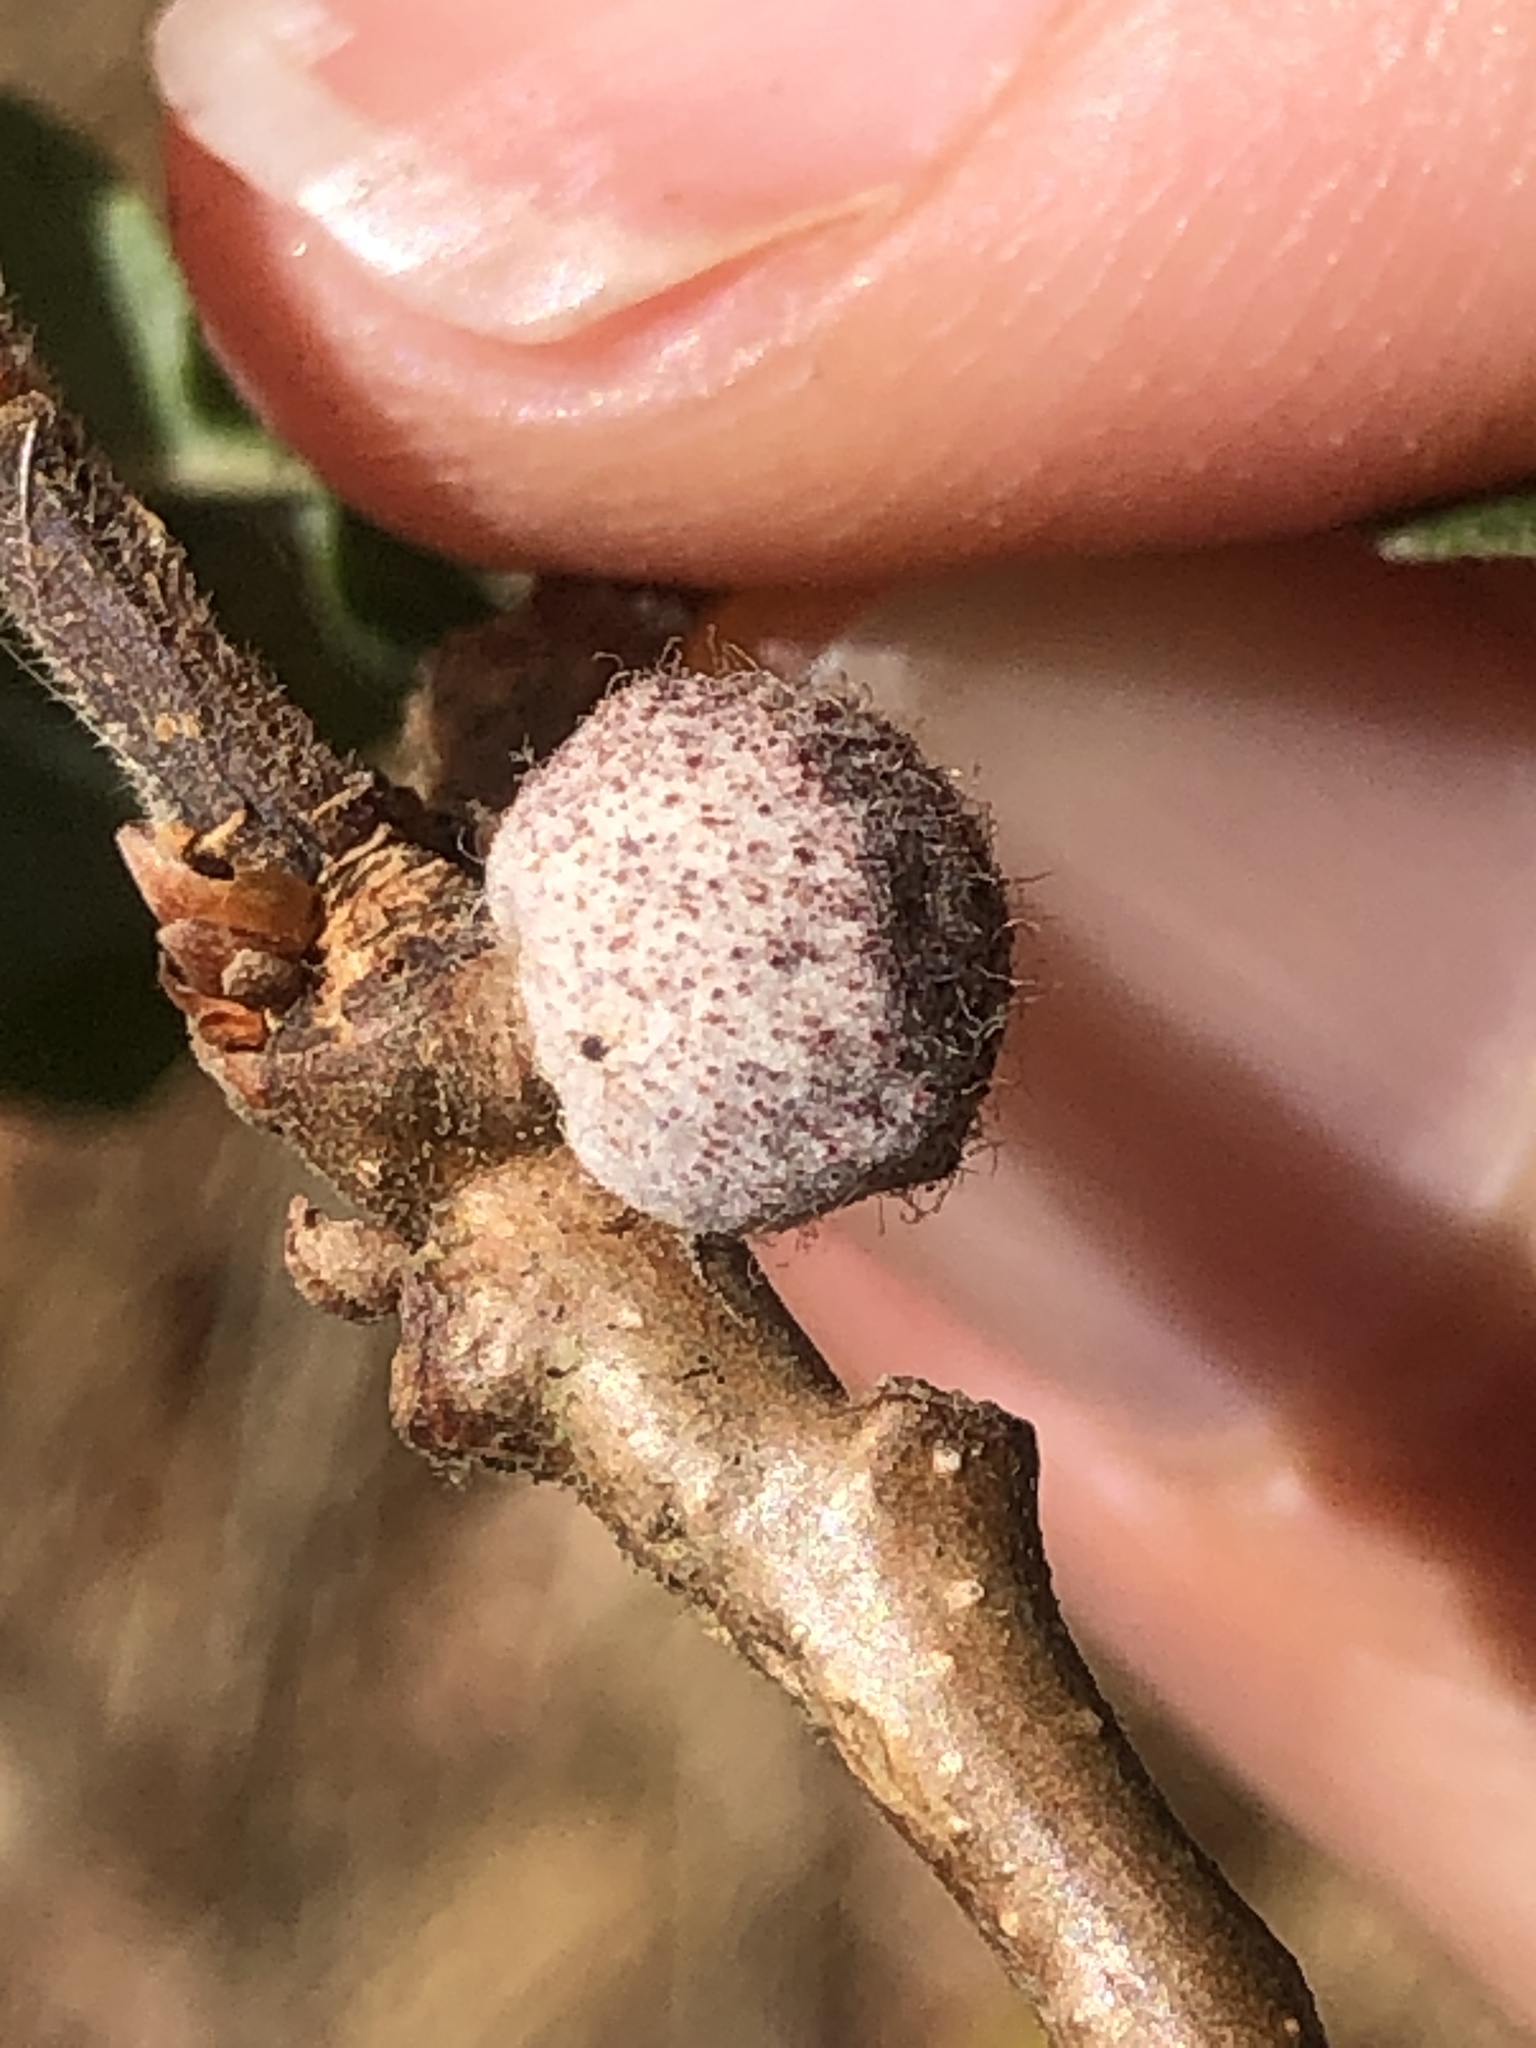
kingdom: Animalia
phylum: Arthropoda
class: Insecta
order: Hymenoptera
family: Cynipidae
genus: Burnettweldia
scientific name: Burnettweldia
